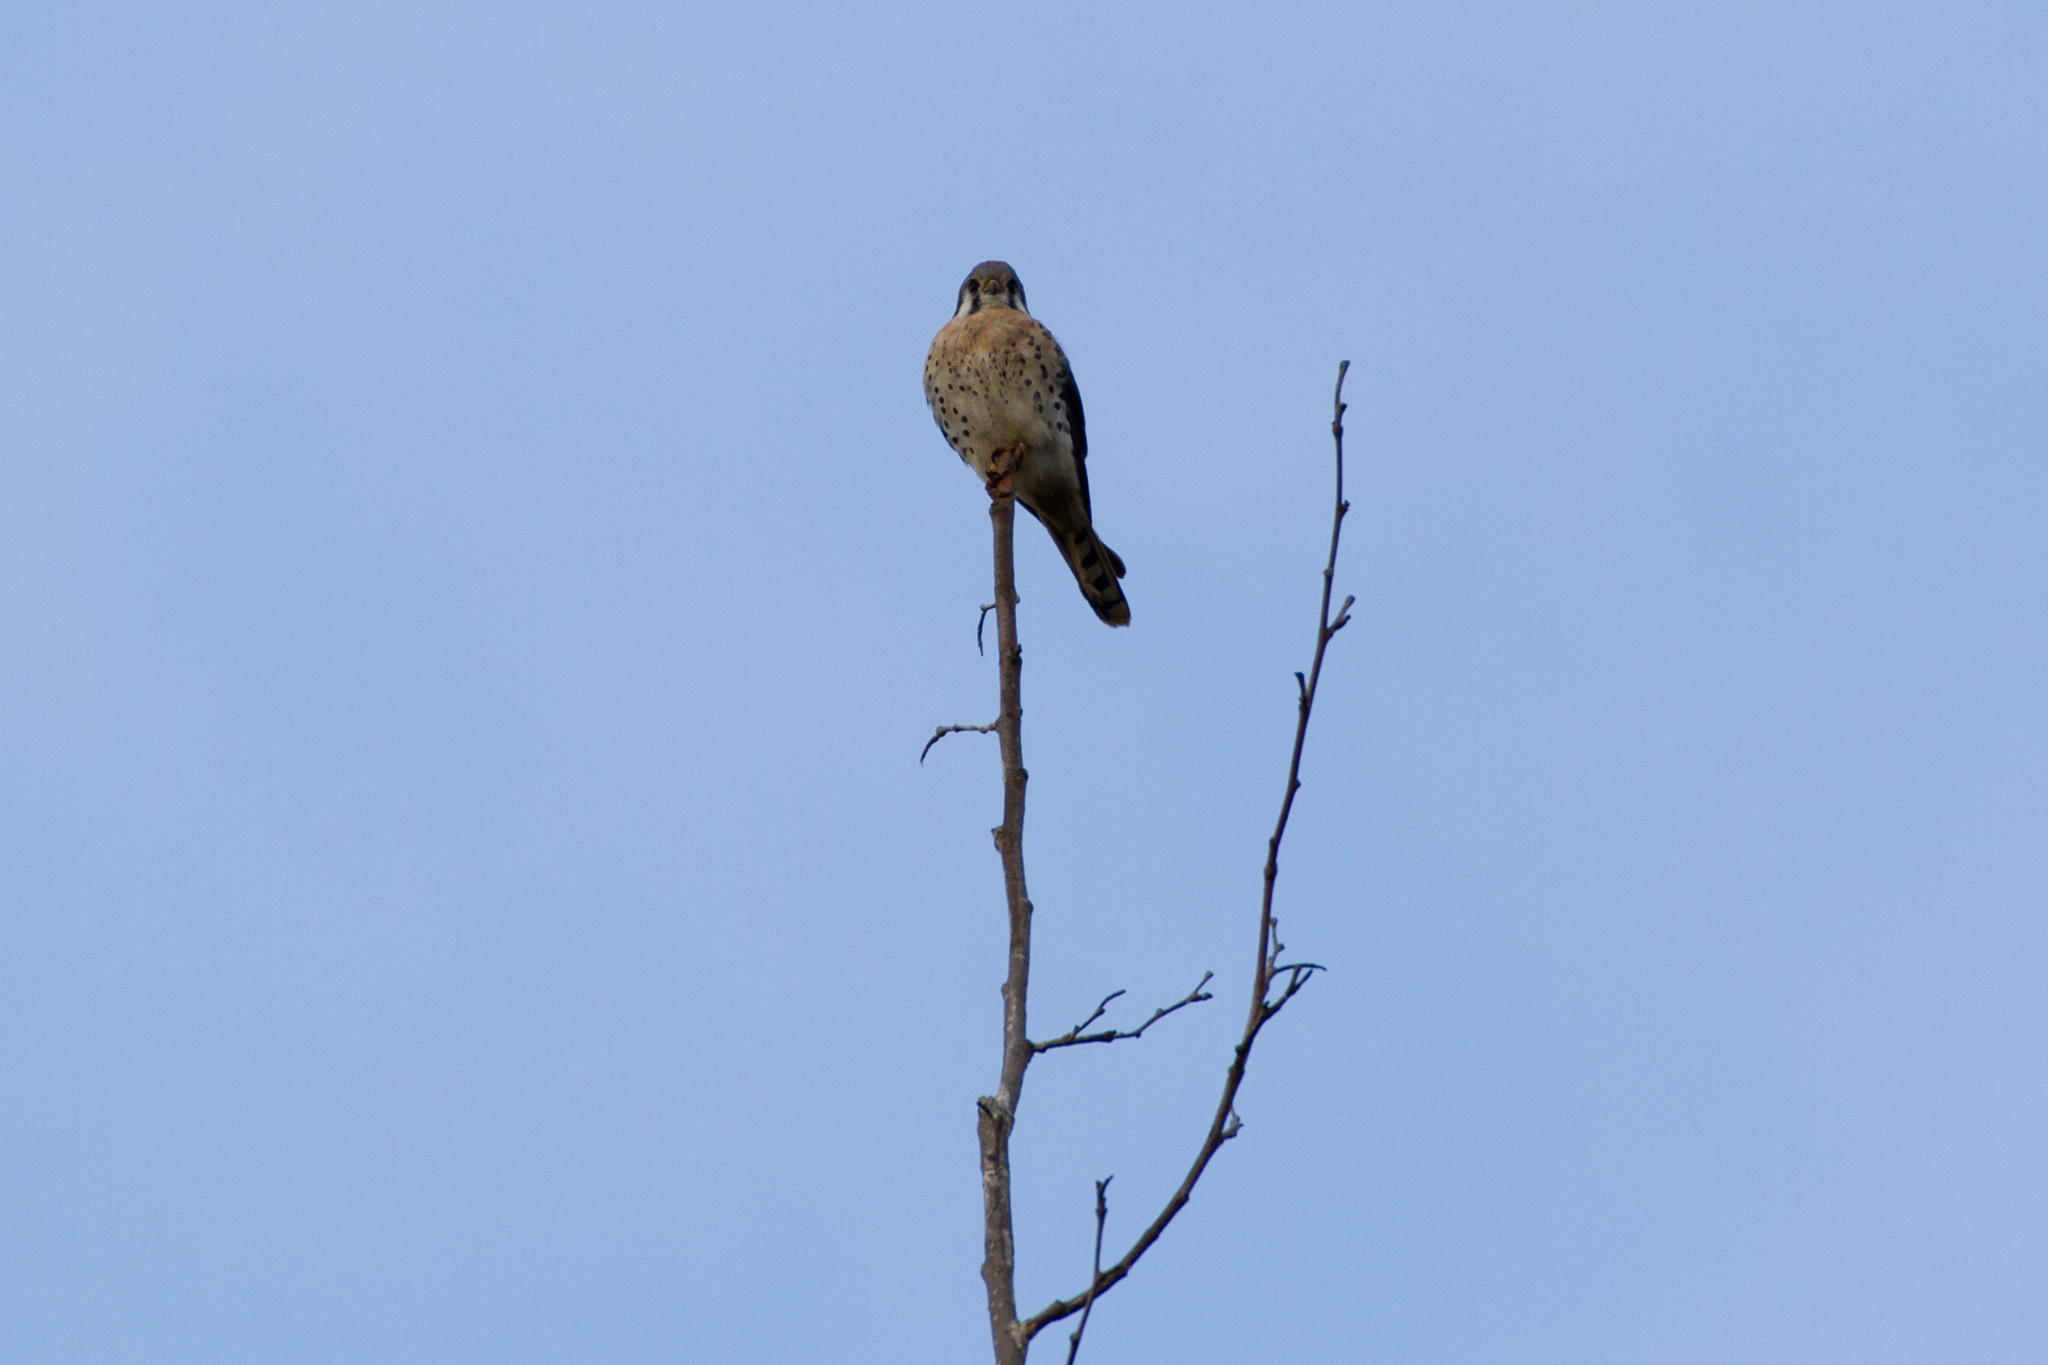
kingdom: Animalia
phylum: Chordata
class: Aves
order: Falconiformes
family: Falconidae
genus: Falco
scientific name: Falco sparverius
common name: American kestrel
